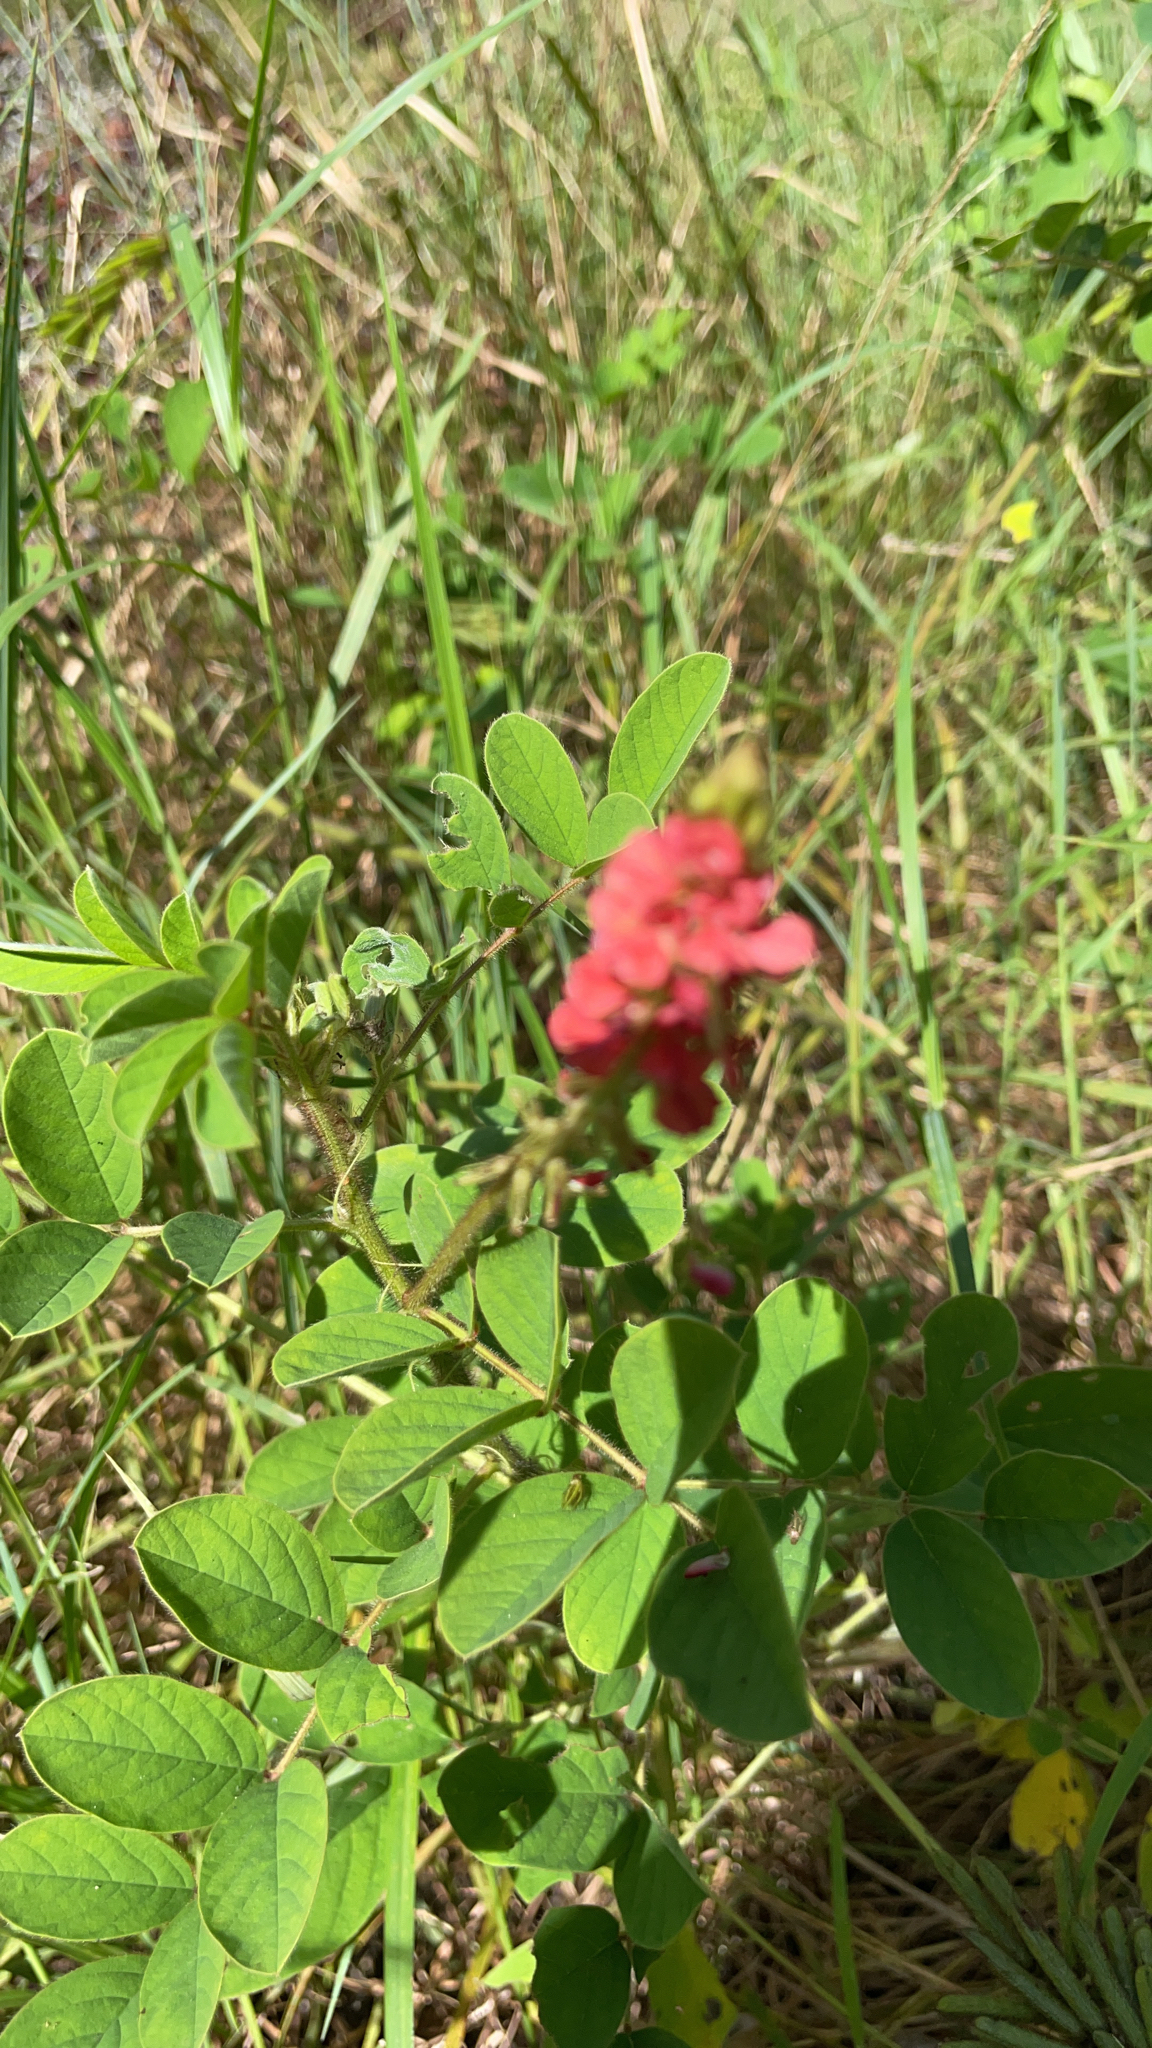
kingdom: Plantae
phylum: Tracheophyta
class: Magnoliopsida
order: Fabales
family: Fabaceae
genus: Indigofera
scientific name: Indigofera hirsuta
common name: Hairy indigo
